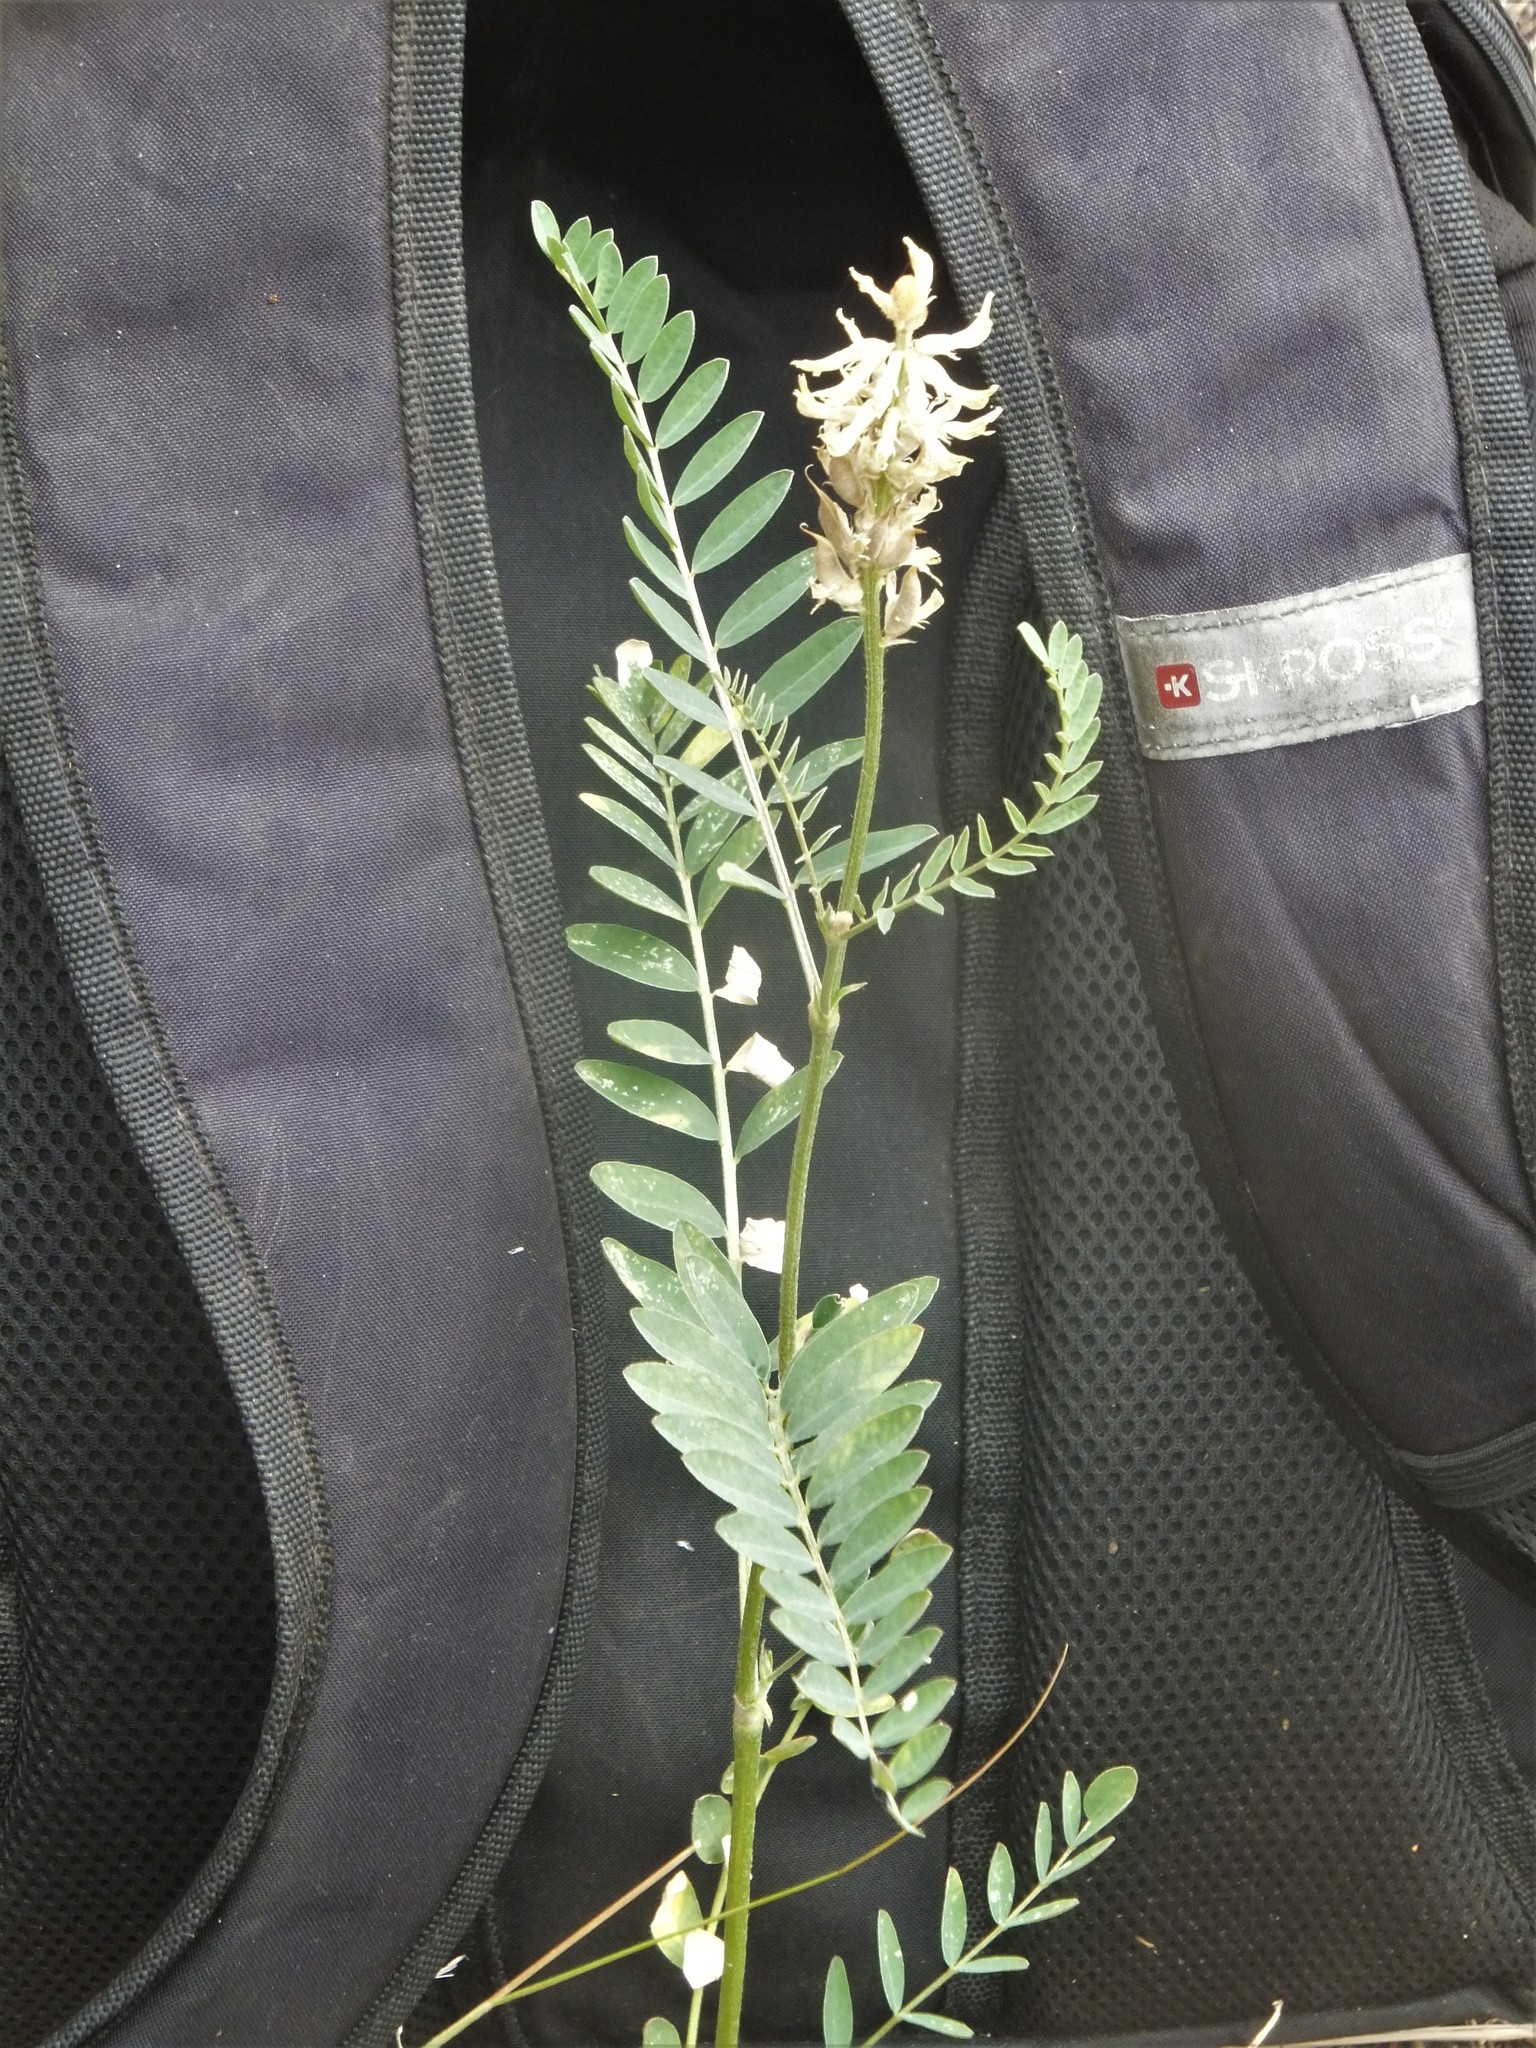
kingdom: Plantae
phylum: Tracheophyta
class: Magnoliopsida
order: Fabales
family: Fabaceae
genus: Astragalus
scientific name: Astragalus canadensis
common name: Canada milk-vetch
